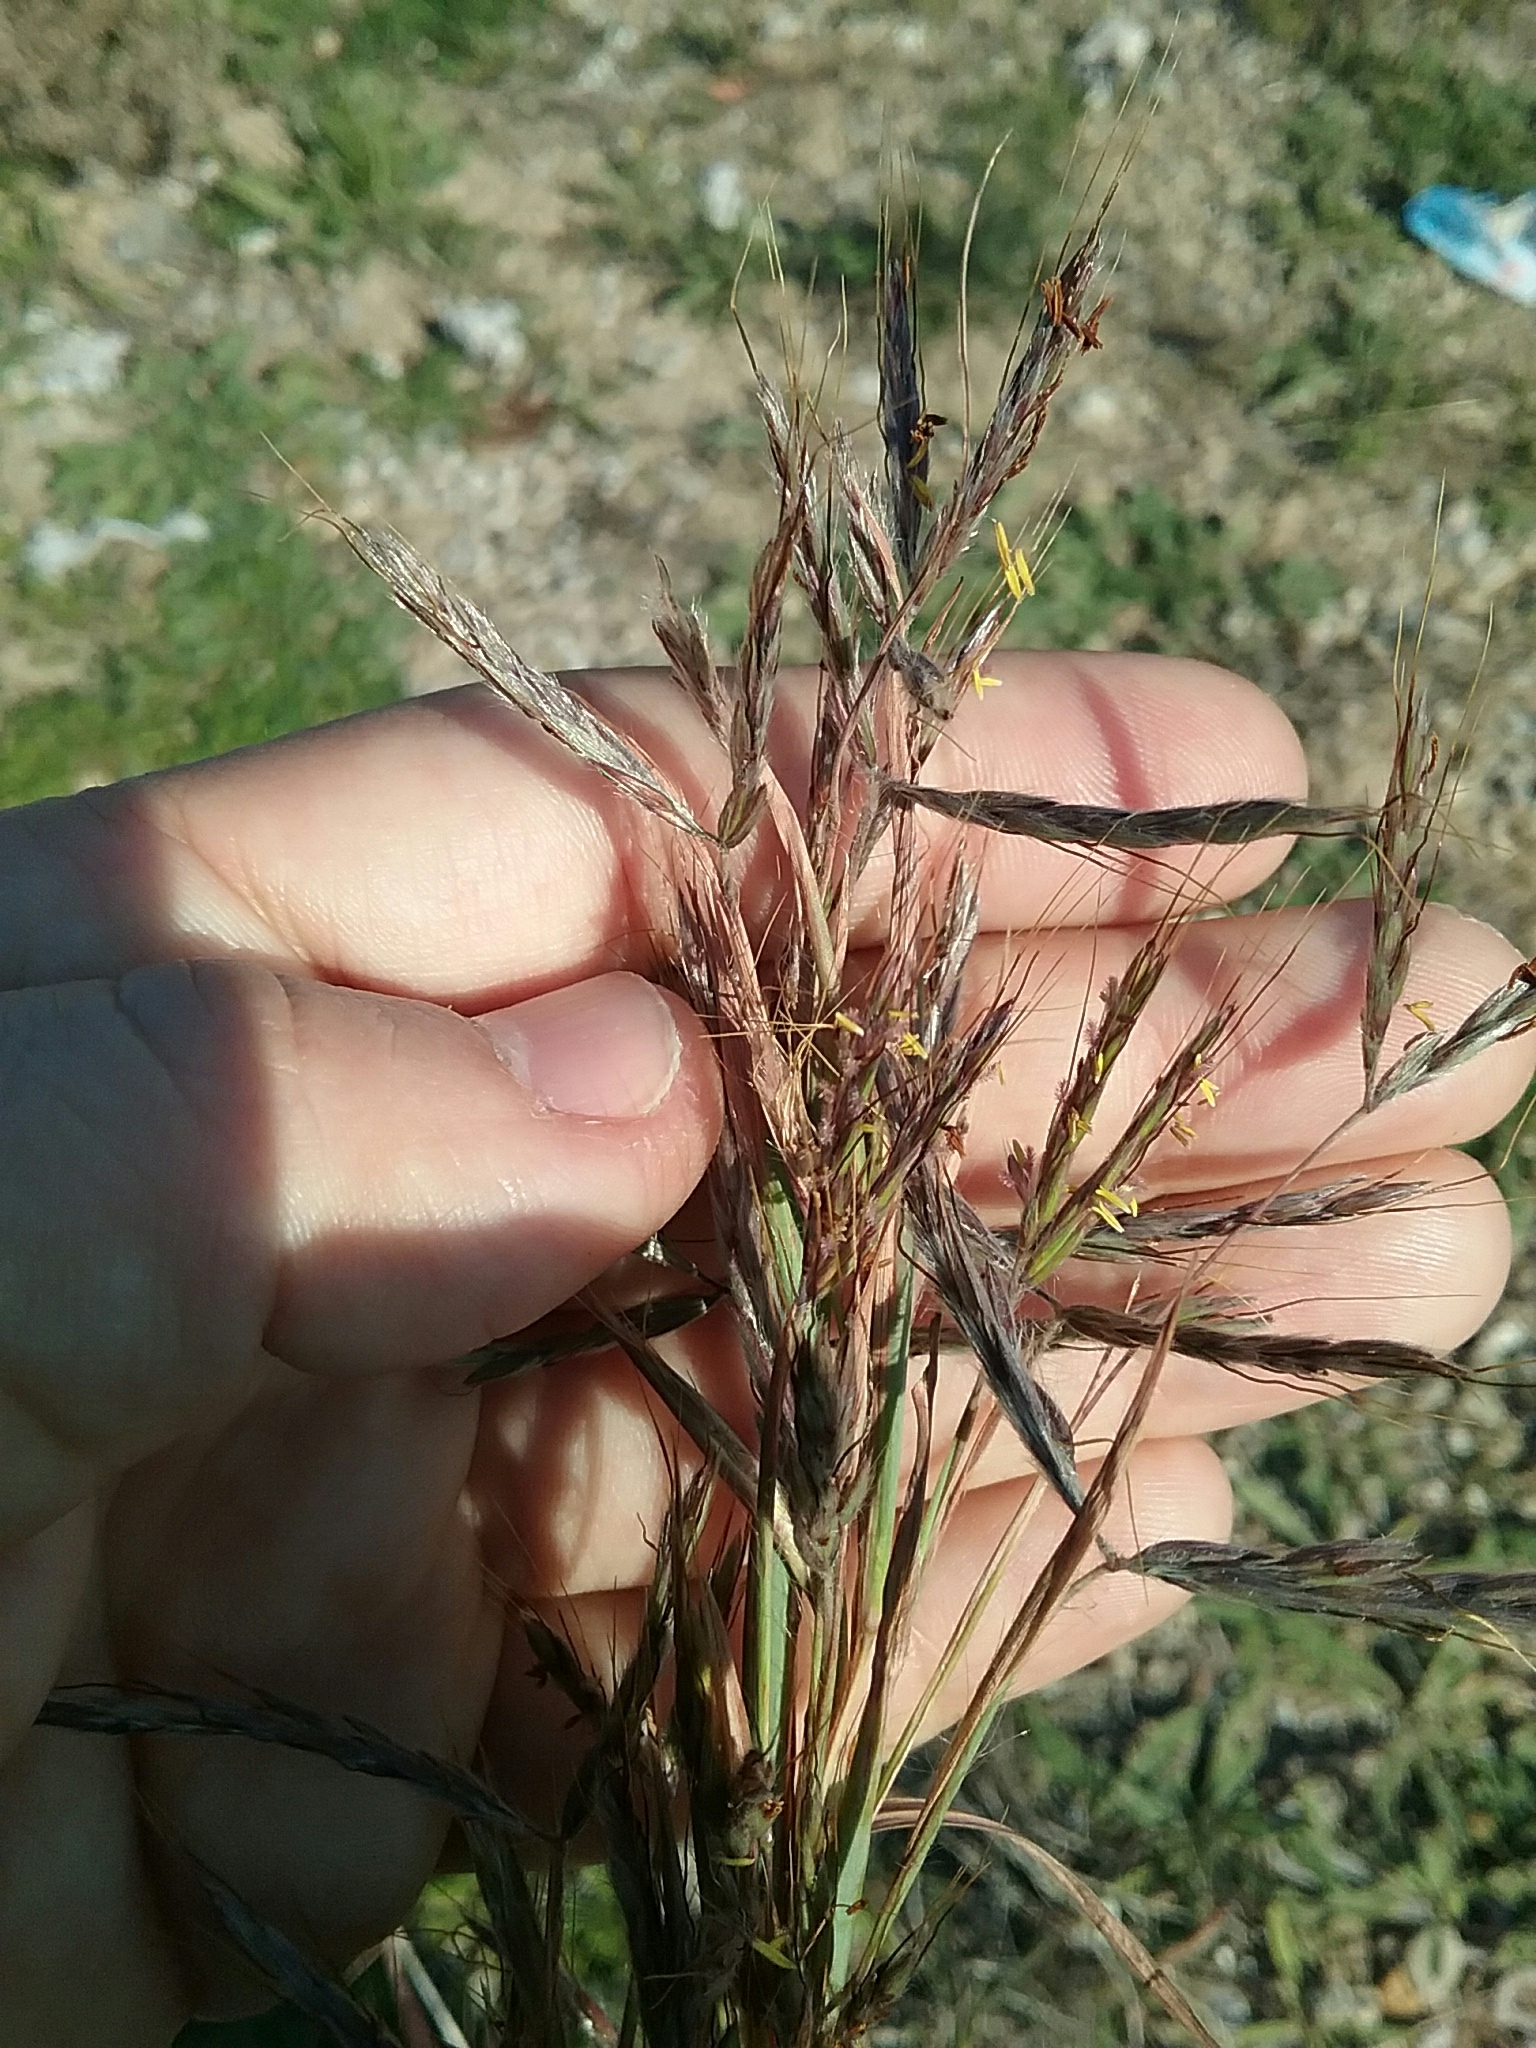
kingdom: Plantae
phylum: Tracheophyta
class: Liliopsida
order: Poales
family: Poaceae
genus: Hyparrhenia
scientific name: Hyparrhenia hirta
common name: Thatching grass
